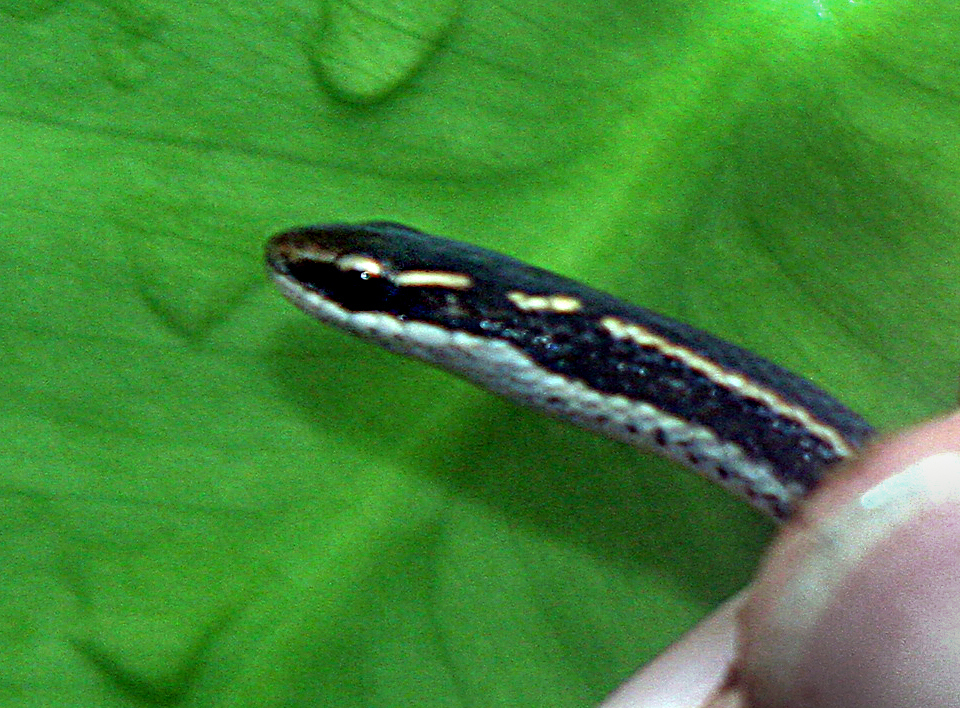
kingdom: Animalia
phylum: Chordata
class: Squamata
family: Colubridae
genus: Coniophanes
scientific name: Coniophanes imperialis
